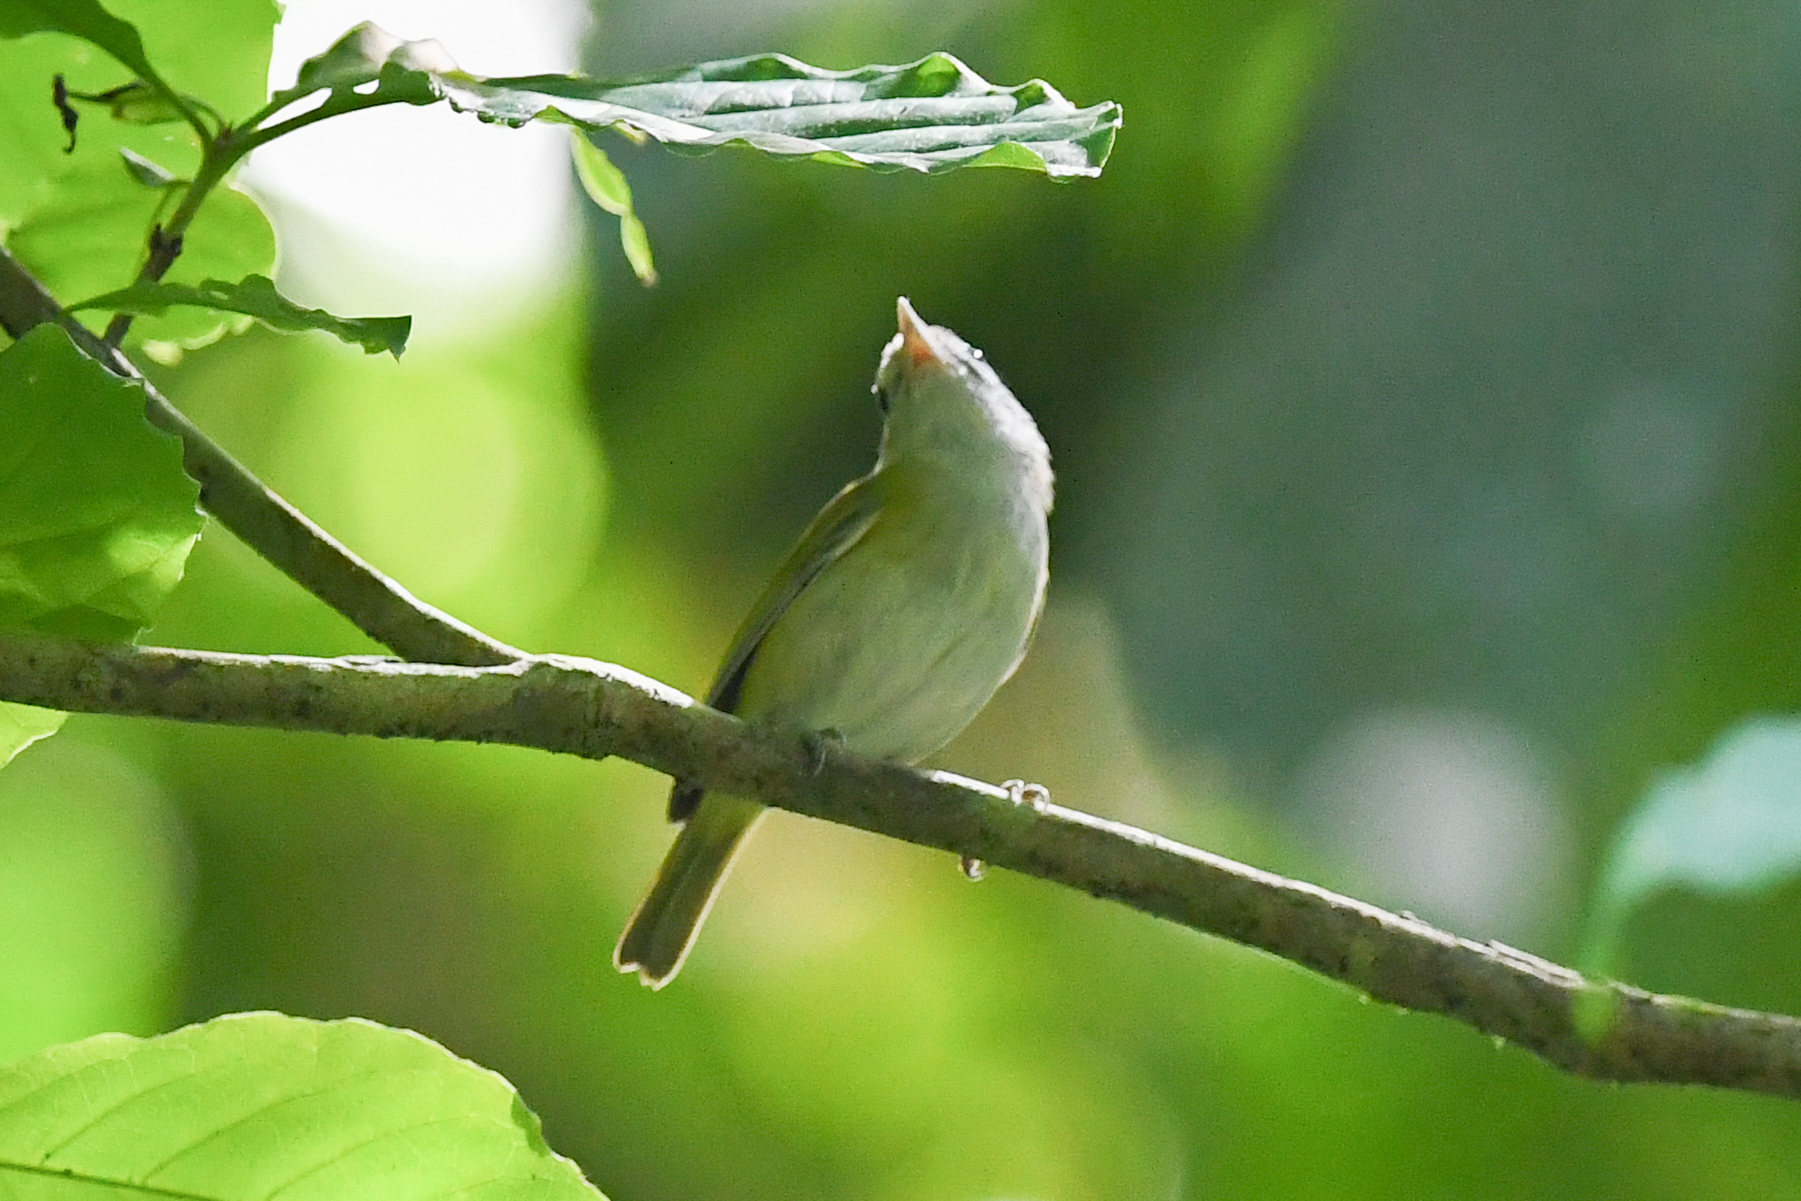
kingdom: Animalia
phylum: Chordata
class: Aves
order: Passeriformes
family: Vireonidae
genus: Hylophilus
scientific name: Hylophilus decurtatus
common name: Lesser greenlet
